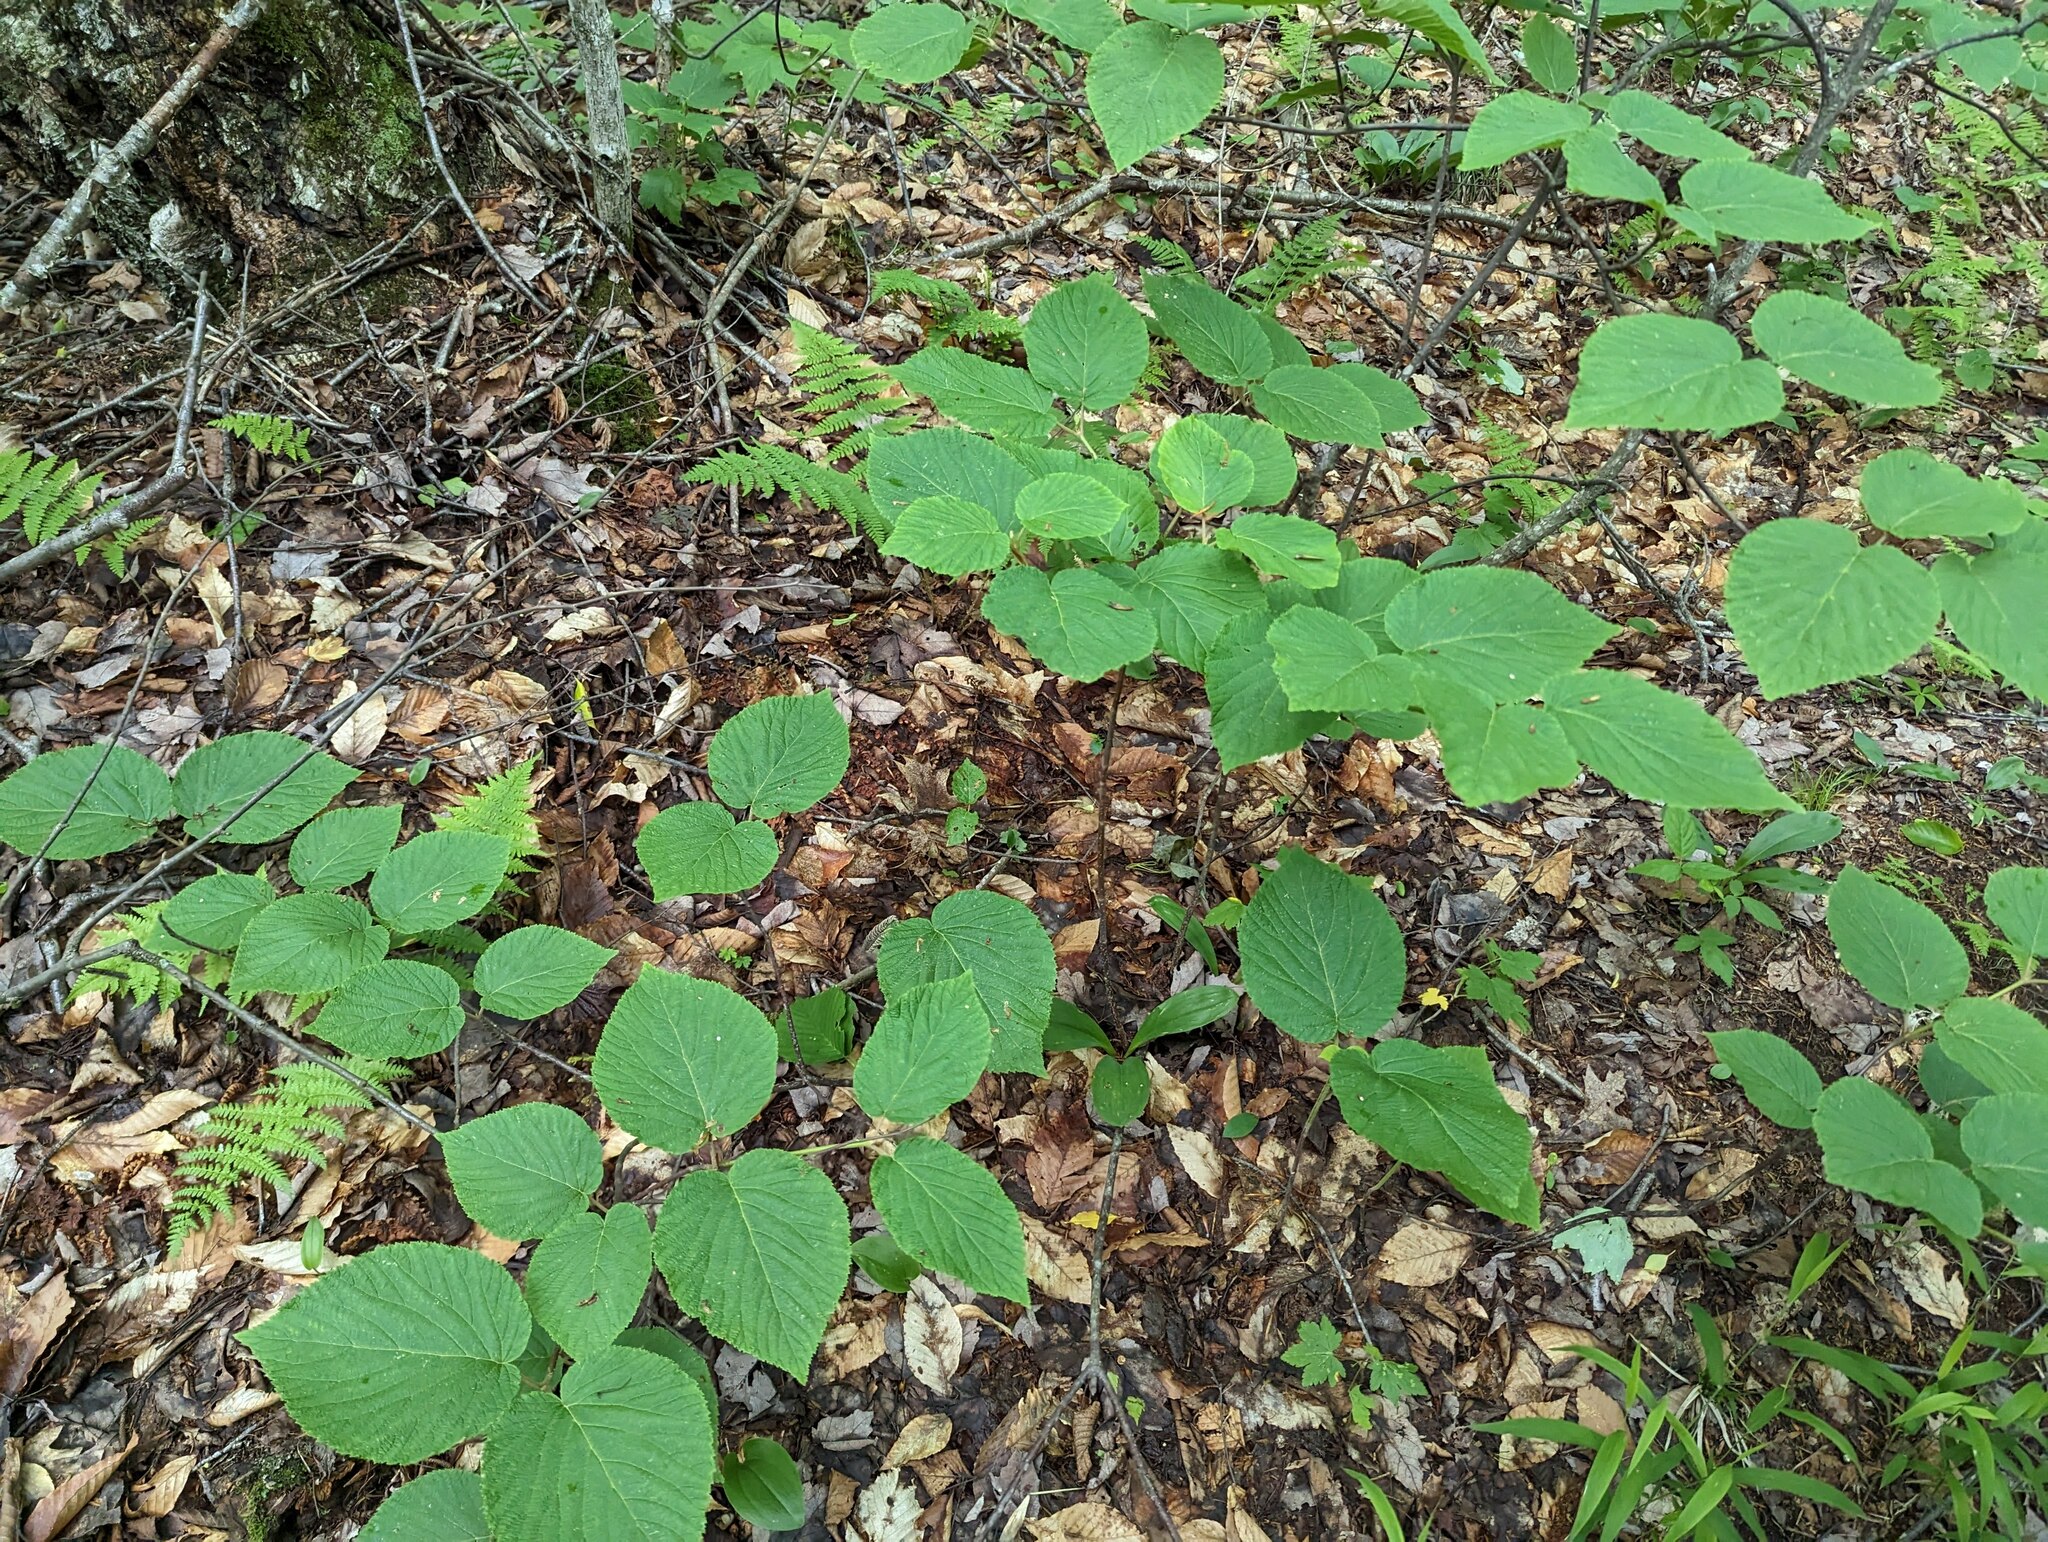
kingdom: Plantae
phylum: Tracheophyta
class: Magnoliopsida
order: Dipsacales
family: Viburnaceae
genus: Viburnum
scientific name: Viburnum lantanoides
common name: Hobblebush
